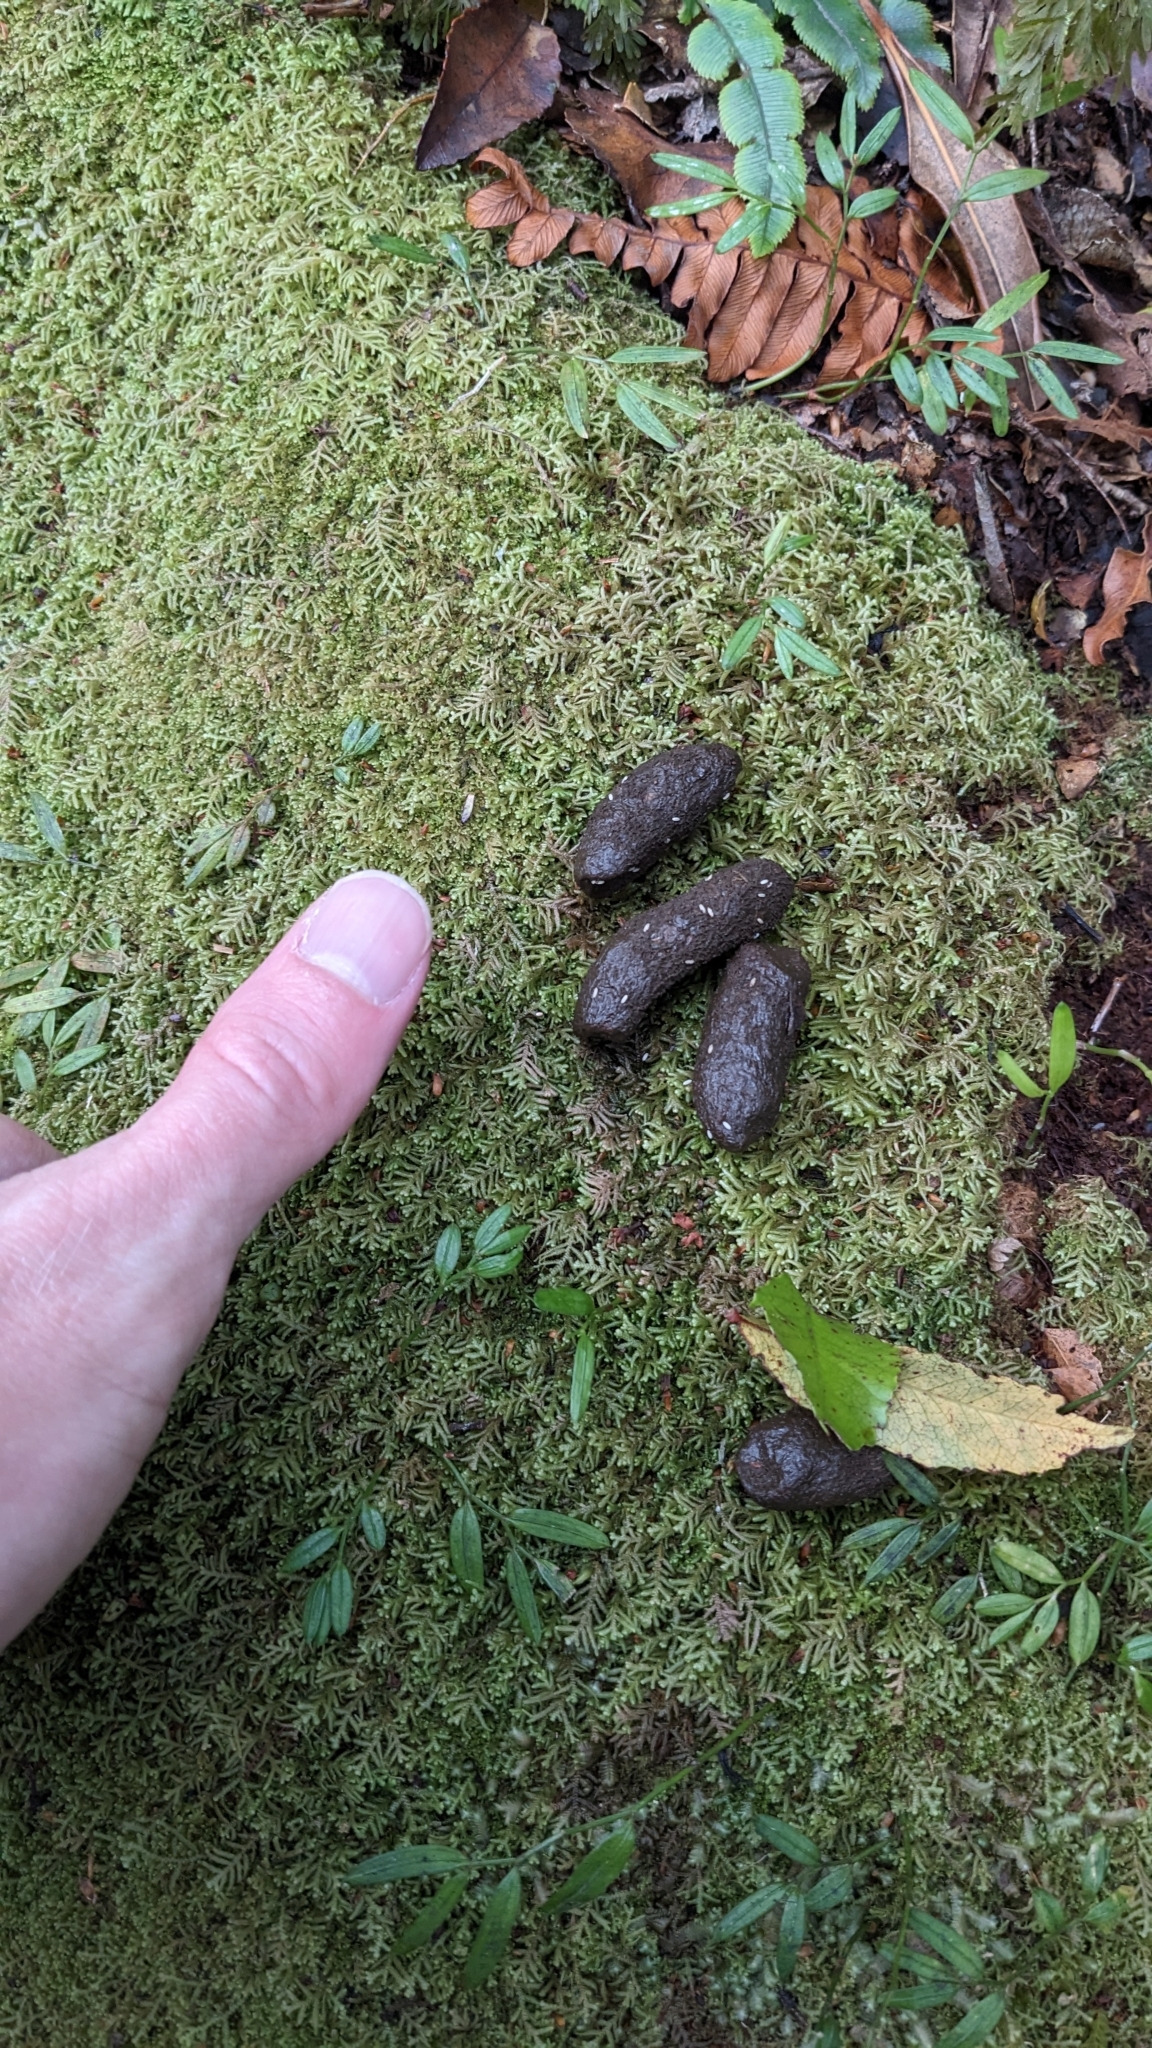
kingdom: Animalia
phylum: Chordata
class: Mammalia
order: Diprotodontia
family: Phalangeridae
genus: Trichosurus
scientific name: Trichosurus vulpecula
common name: Common brushtail
